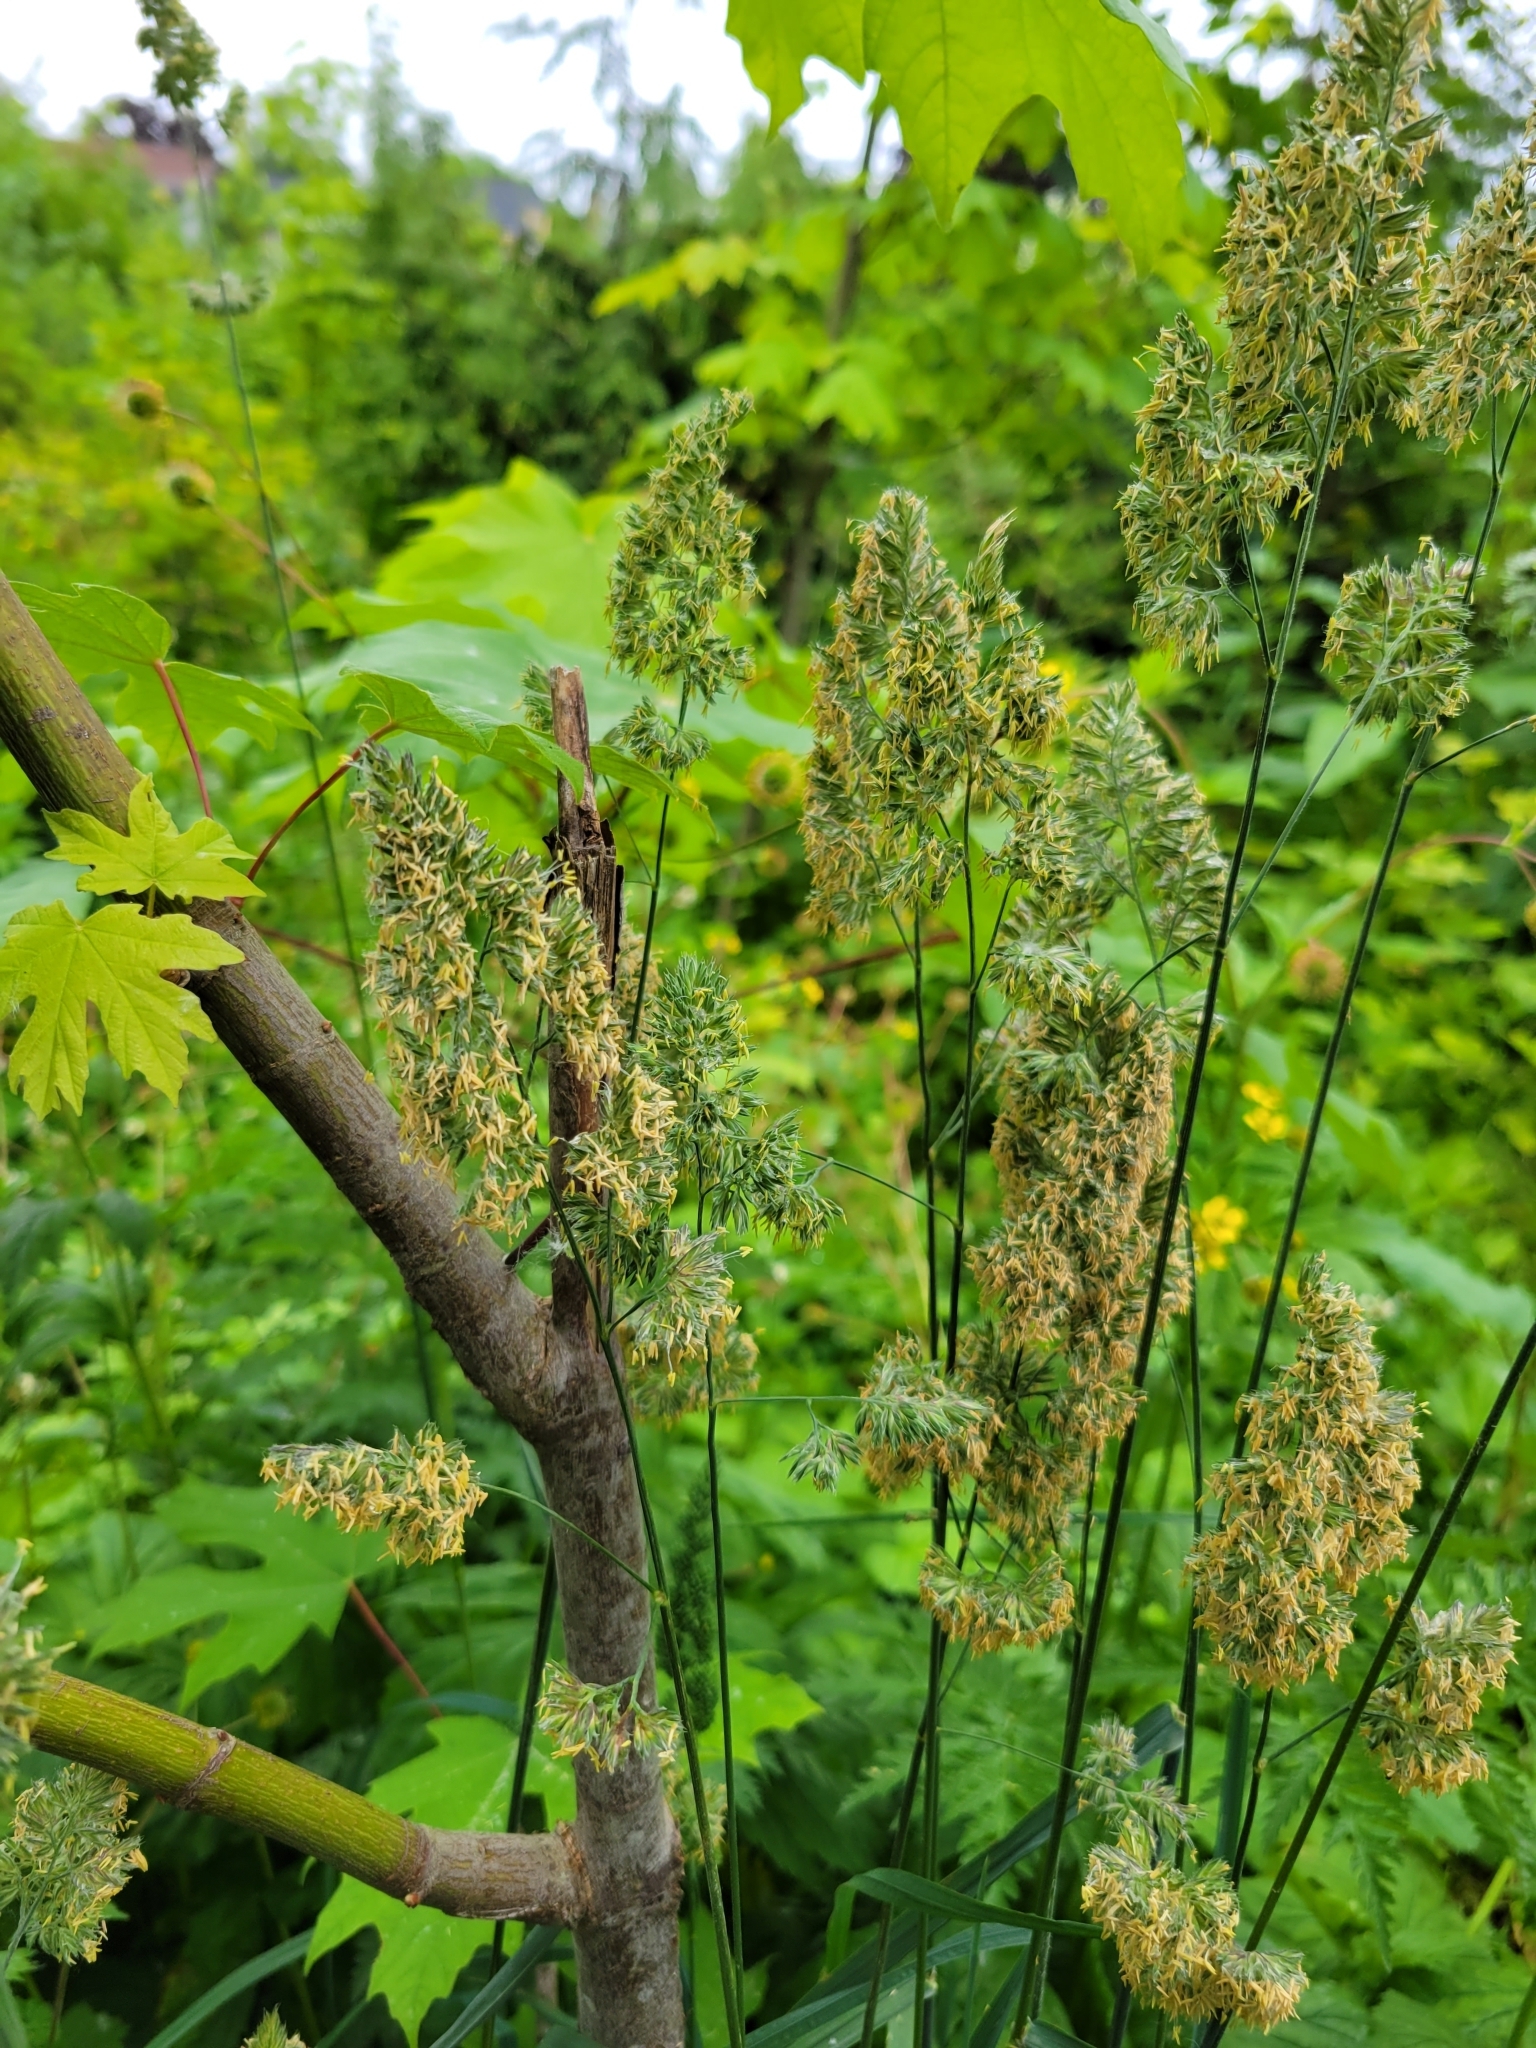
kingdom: Plantae
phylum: Tracheophyta
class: Liliopsida
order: Poales
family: Poaceae
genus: Dactylis
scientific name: Dactylis glomerata
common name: Orchardgrass
